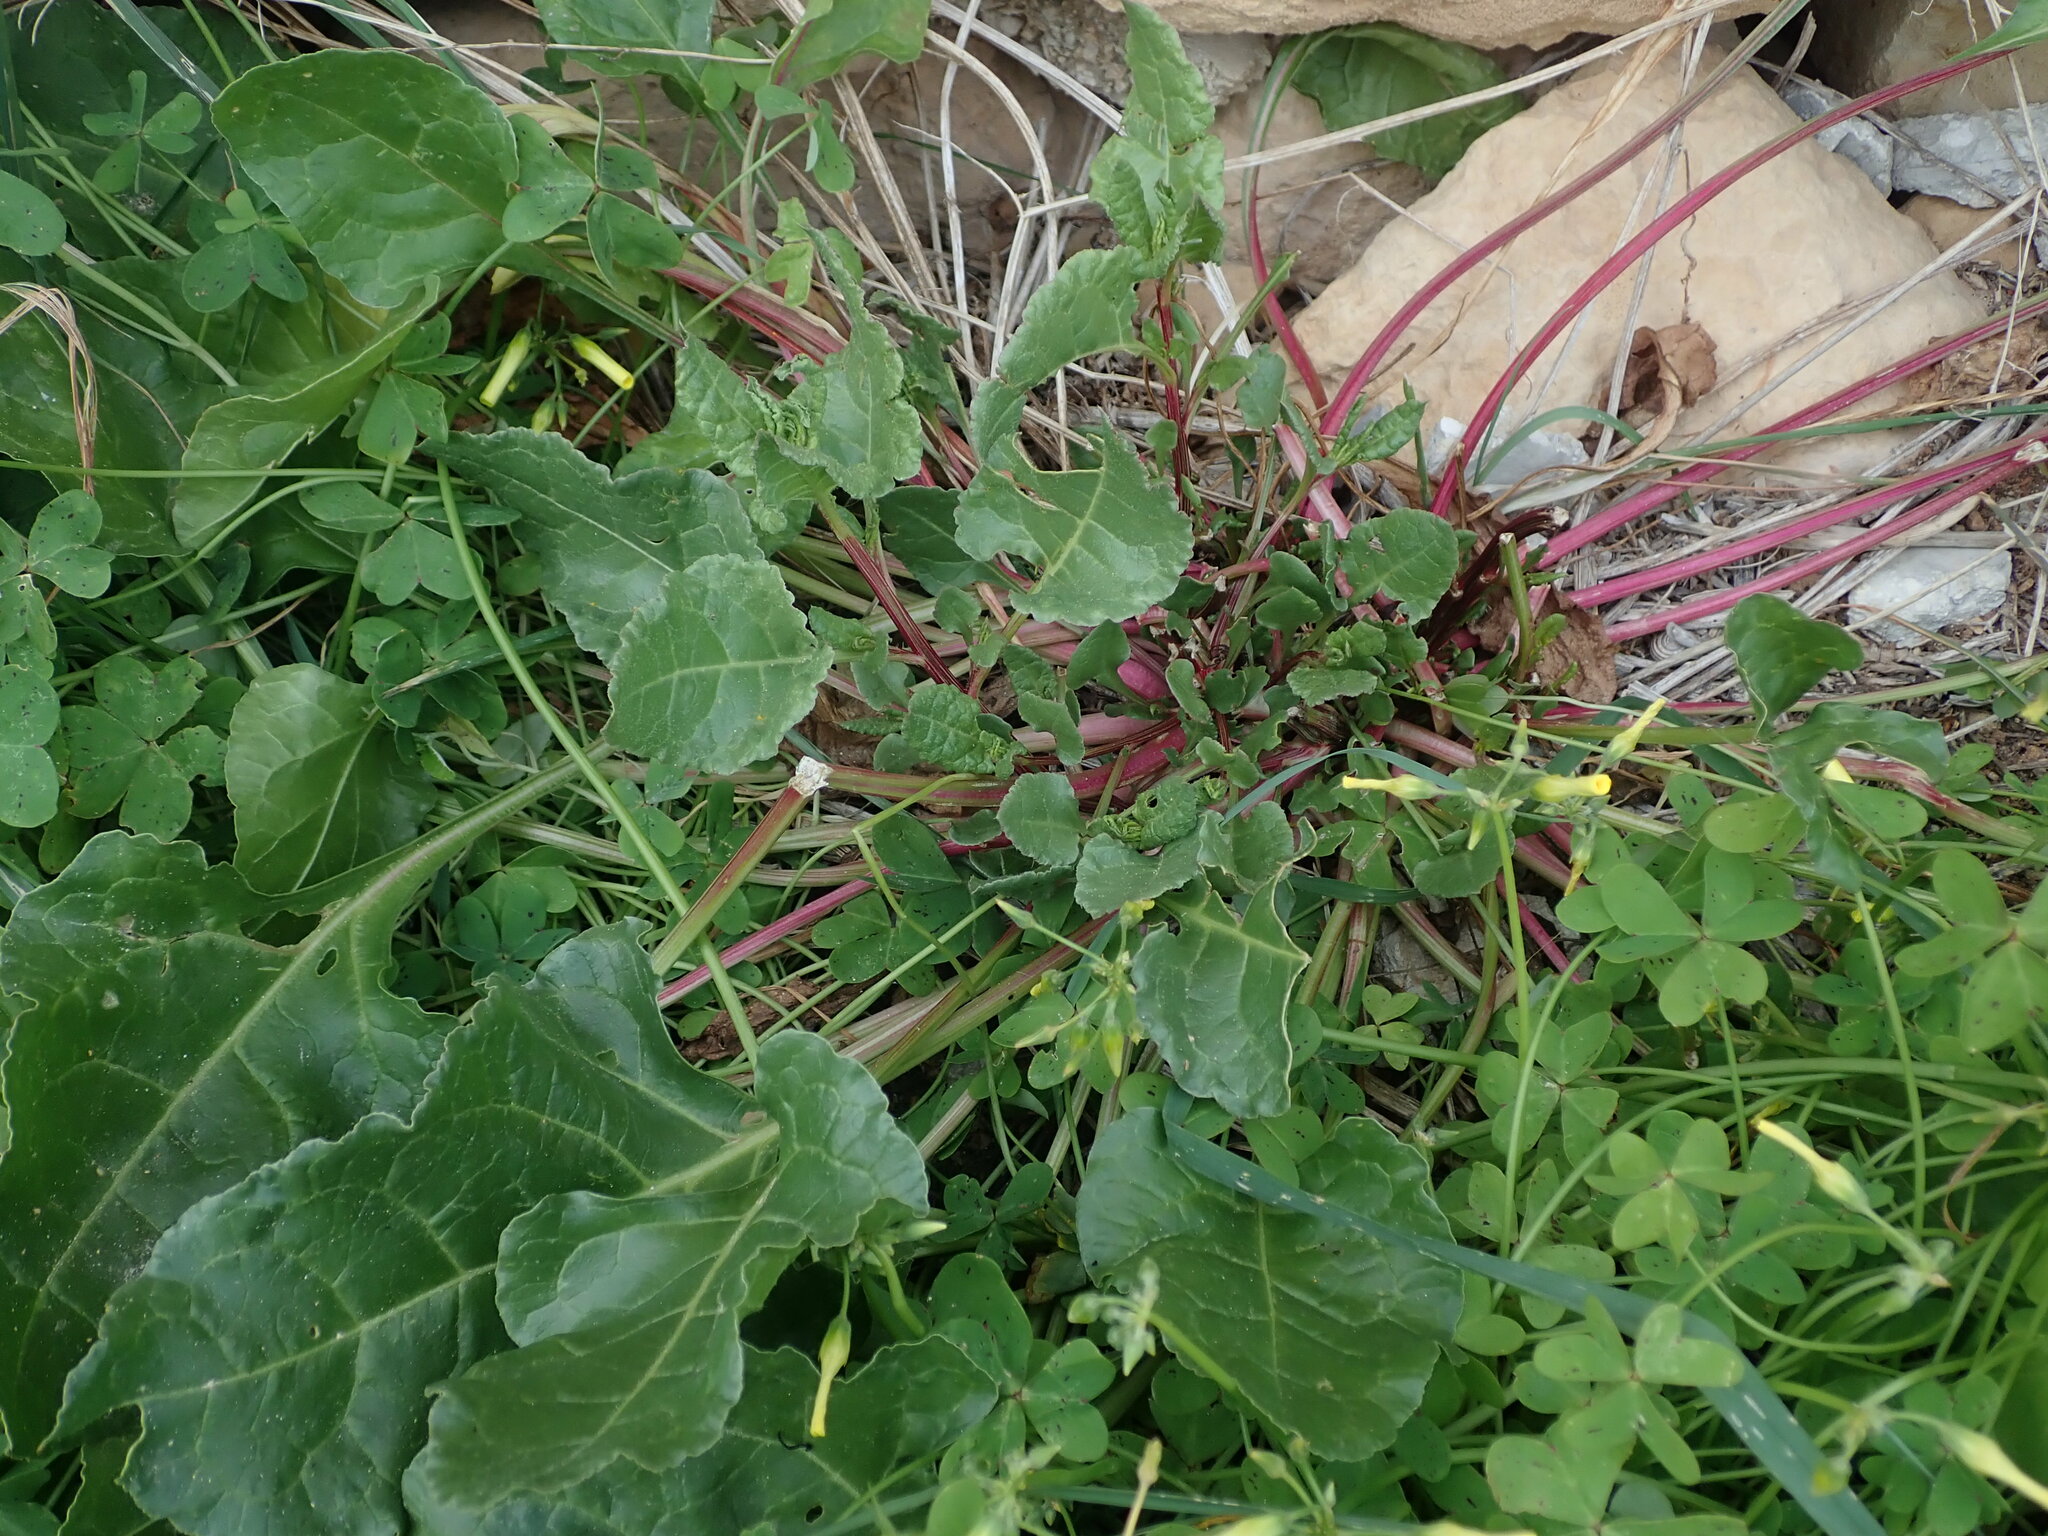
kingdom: Plantae
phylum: Tracheophyta
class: Magnoliopsida
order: Caryophyllales
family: Amaranthaceae
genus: Beta
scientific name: Beta vulgaris
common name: Beet
